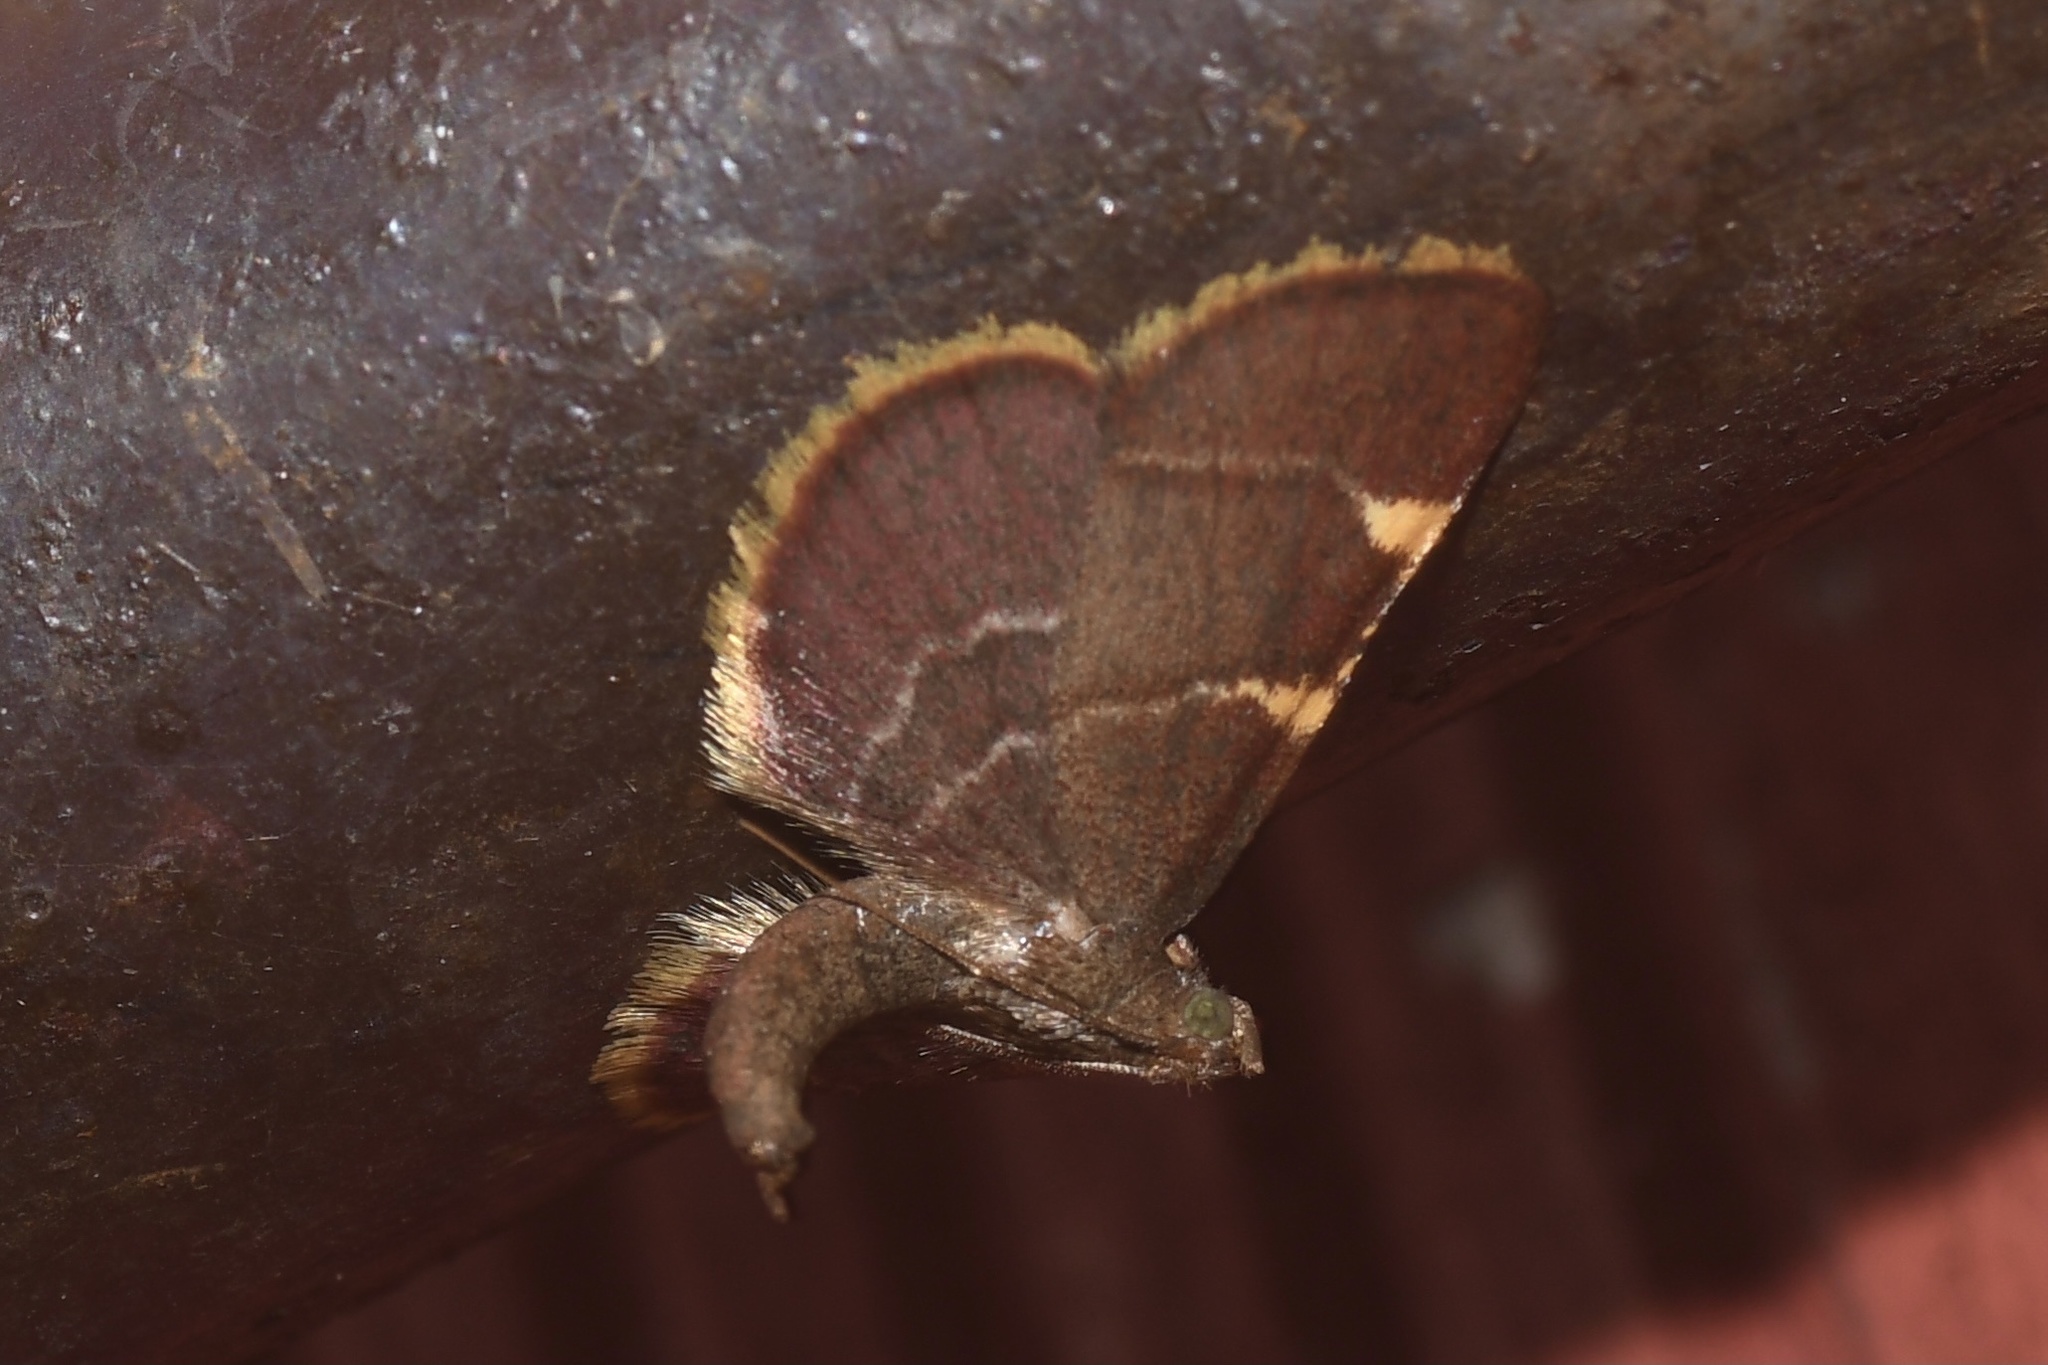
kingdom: Animalia
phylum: Arthropoda
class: Insecta
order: Lepidoptera
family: Pyralidae
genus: Hypsopygia
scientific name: Hypsopygia olinalis
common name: Yellow-fringed dolichomia moth
